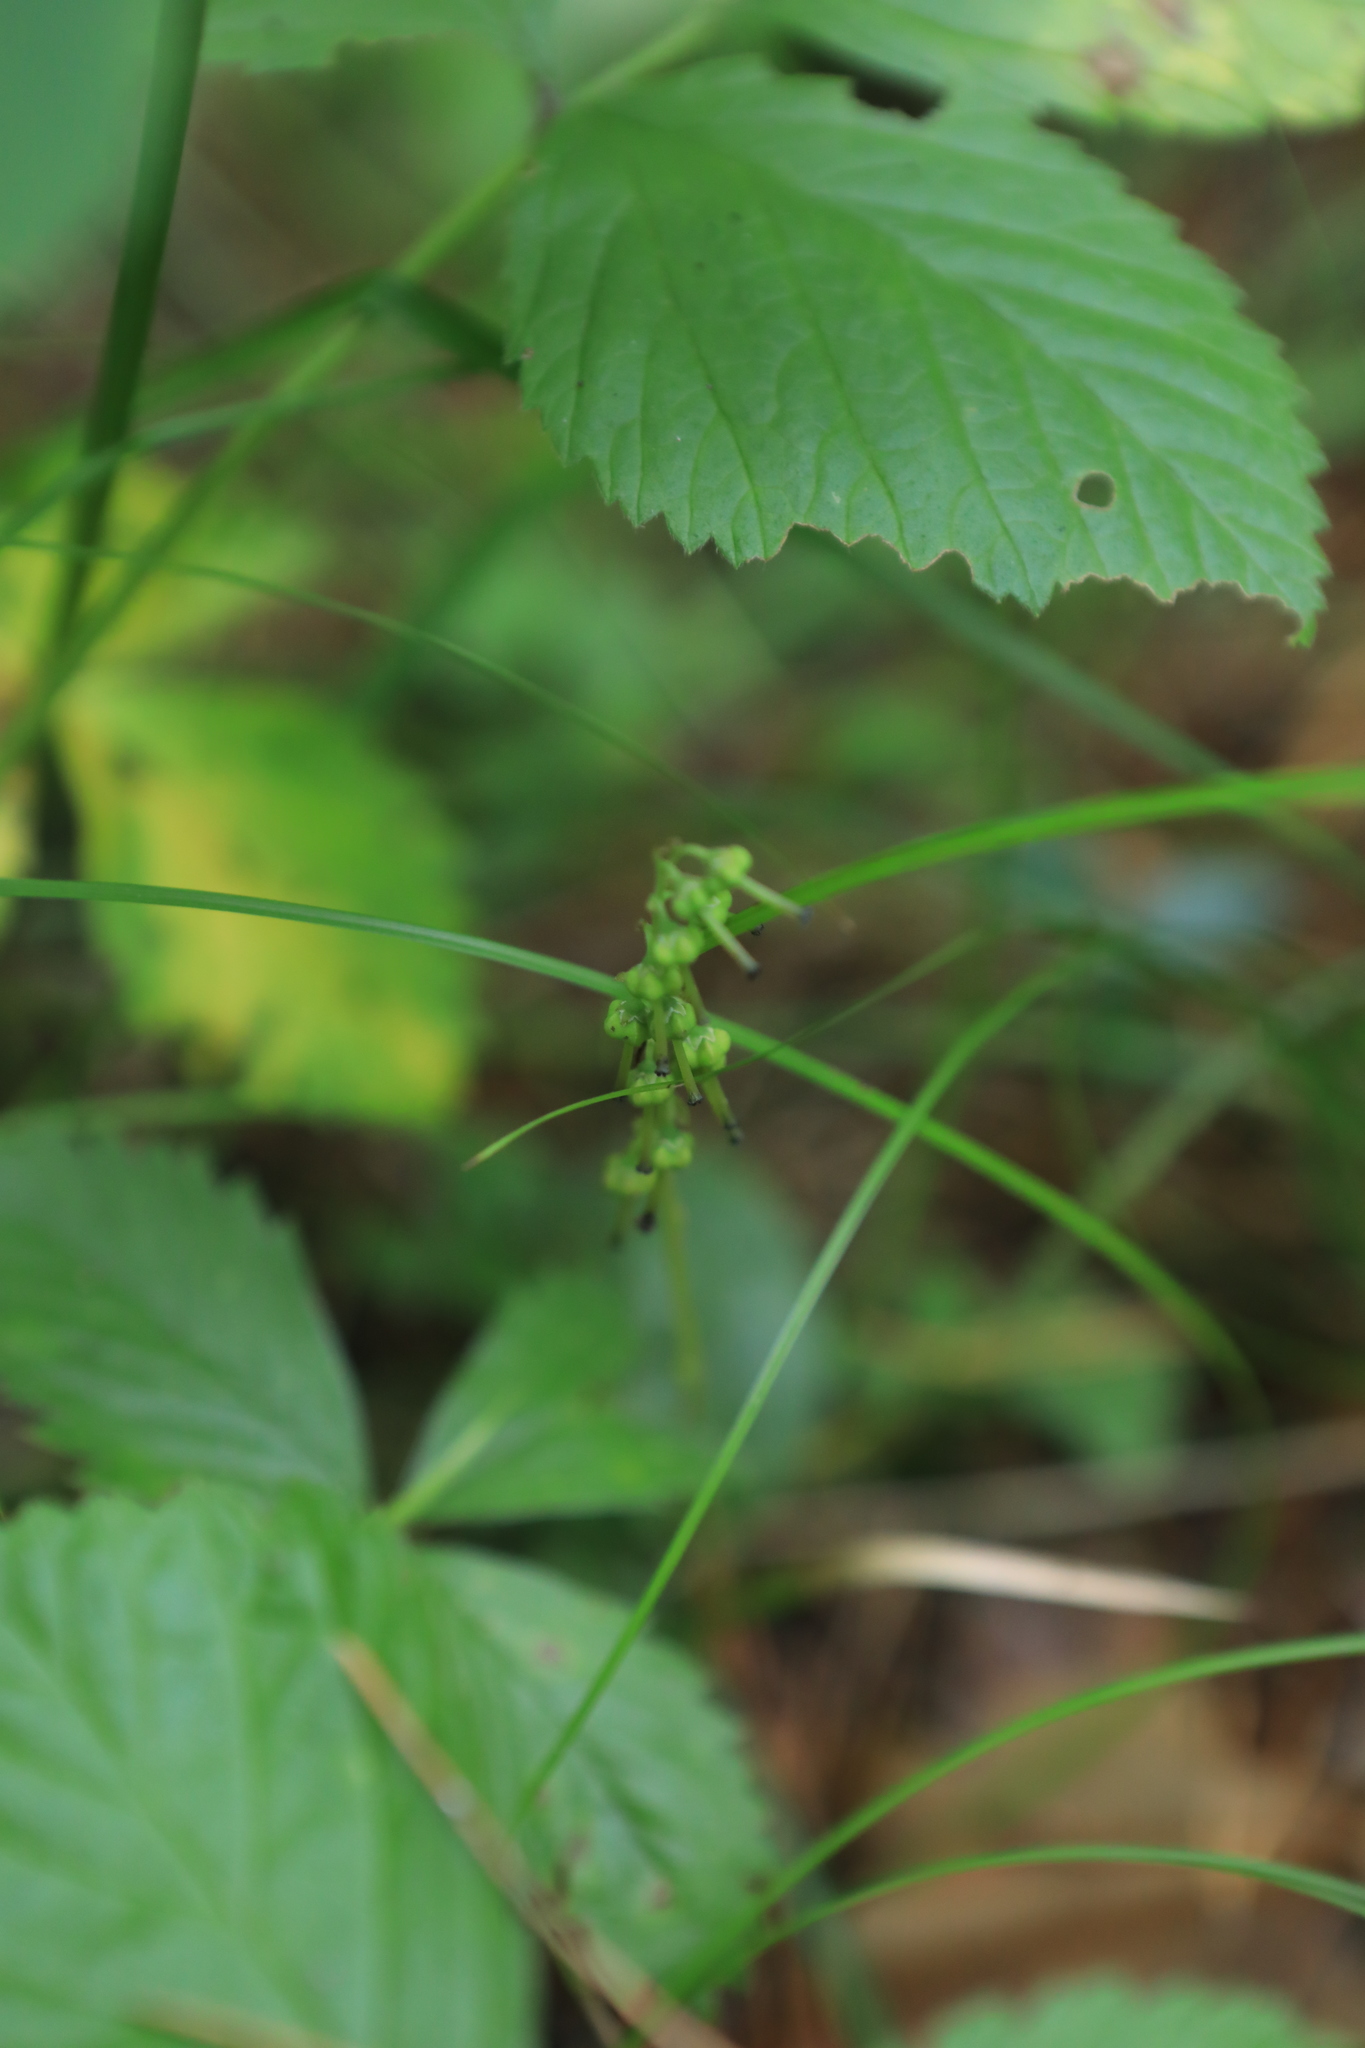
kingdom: Plantae
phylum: Tracheophyta
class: Magnoliopsida
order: Ericales
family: Ericaceae
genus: Orthilia
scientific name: Orthilia secunda
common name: One-sided orthilia
